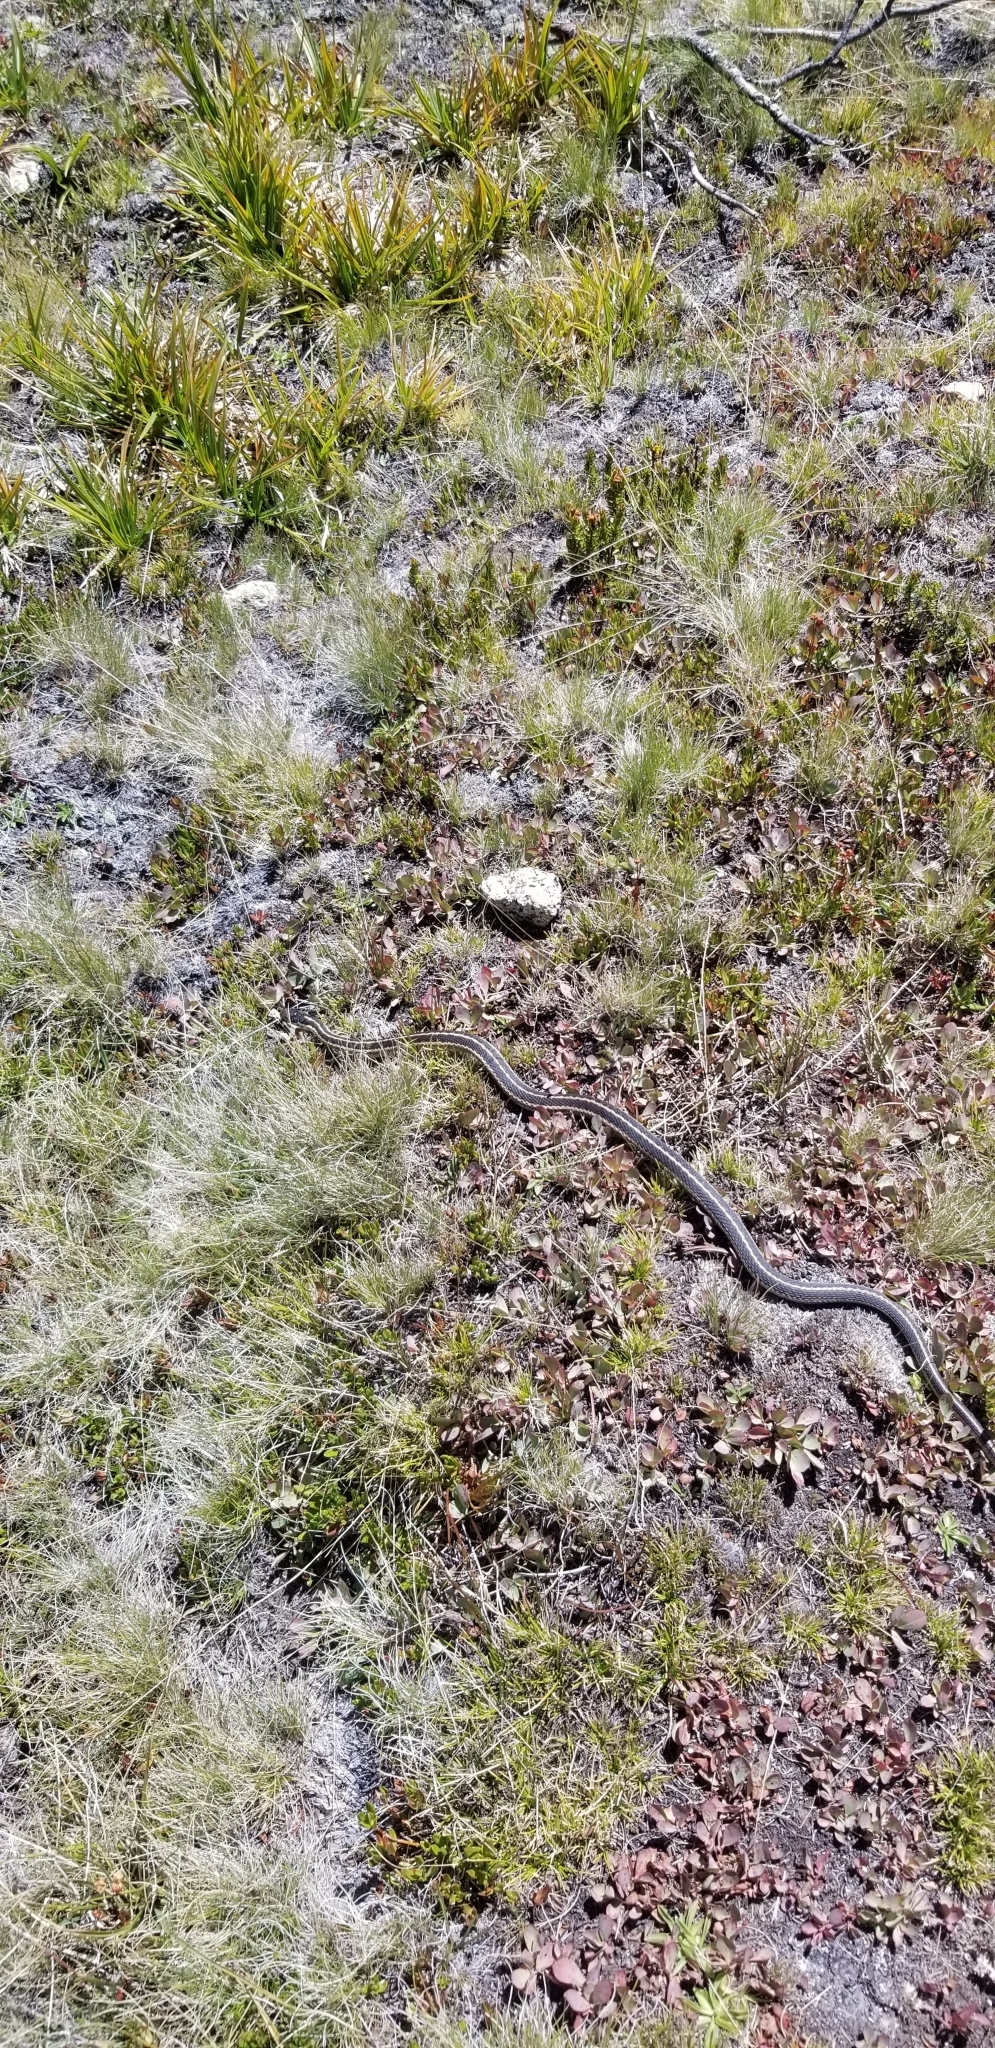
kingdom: Animalia
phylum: Chordata
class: Squamata
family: Colubridae
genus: Thamnophis
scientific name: Thamnophis elegans
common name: Western terrestrial garter snake
